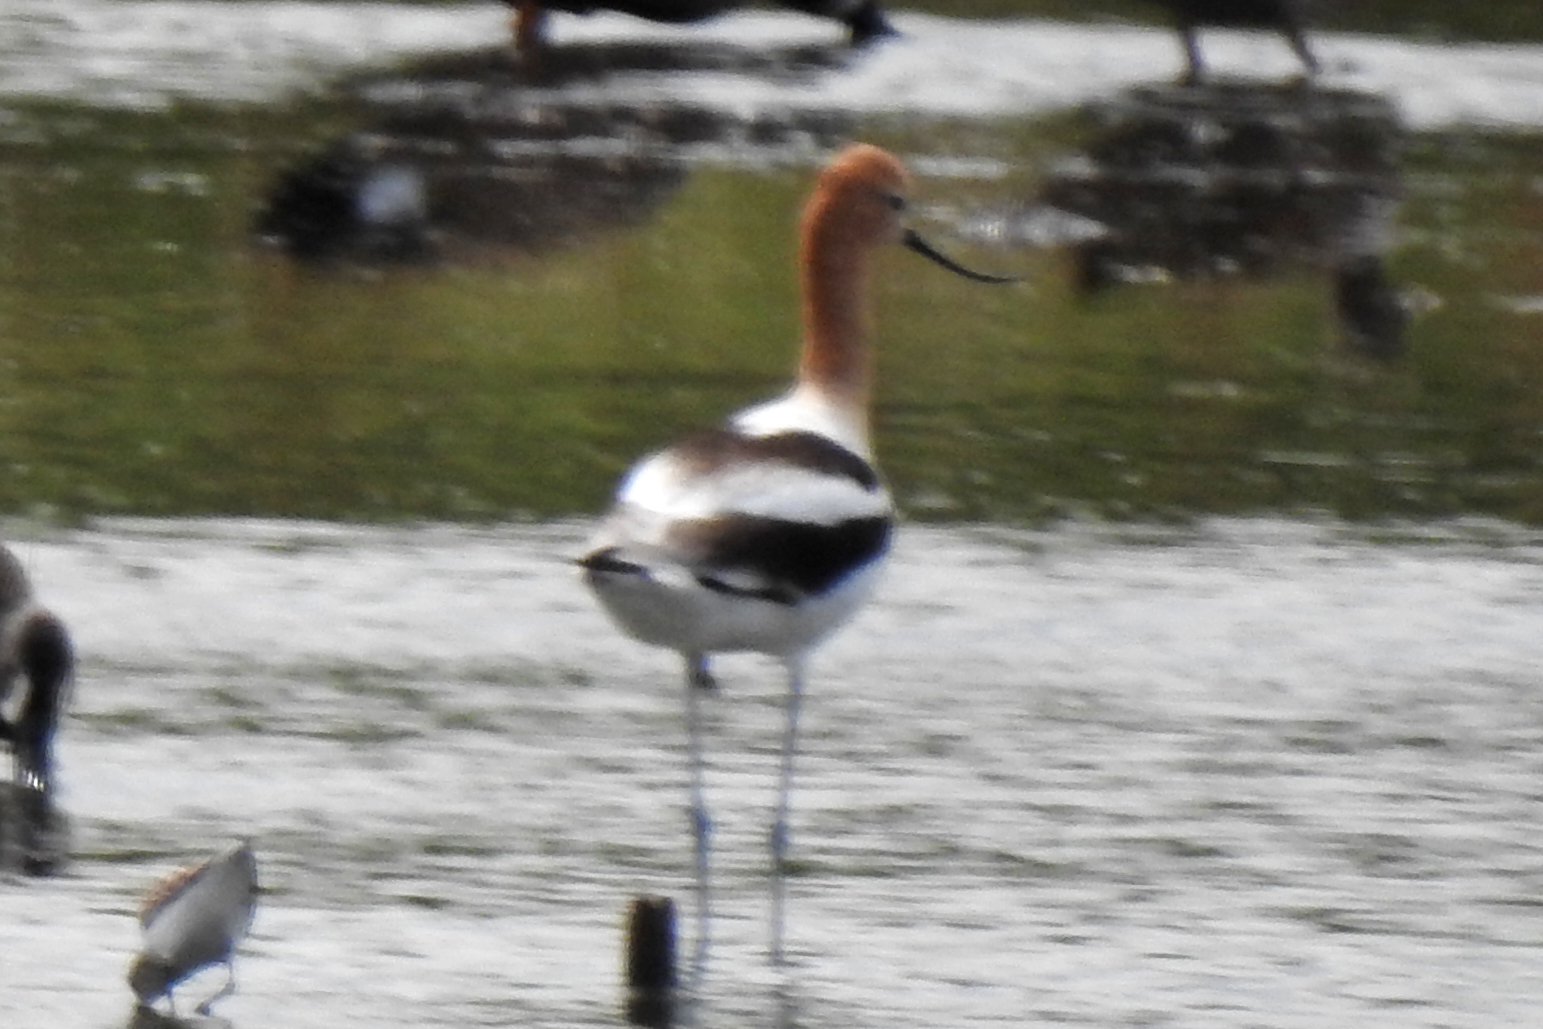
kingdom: Animalia
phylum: Chordata
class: Aves
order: Charadriiformes
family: Recurvirostridae
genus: Recurvirostra
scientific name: Recurvirostra americana
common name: American avocet
